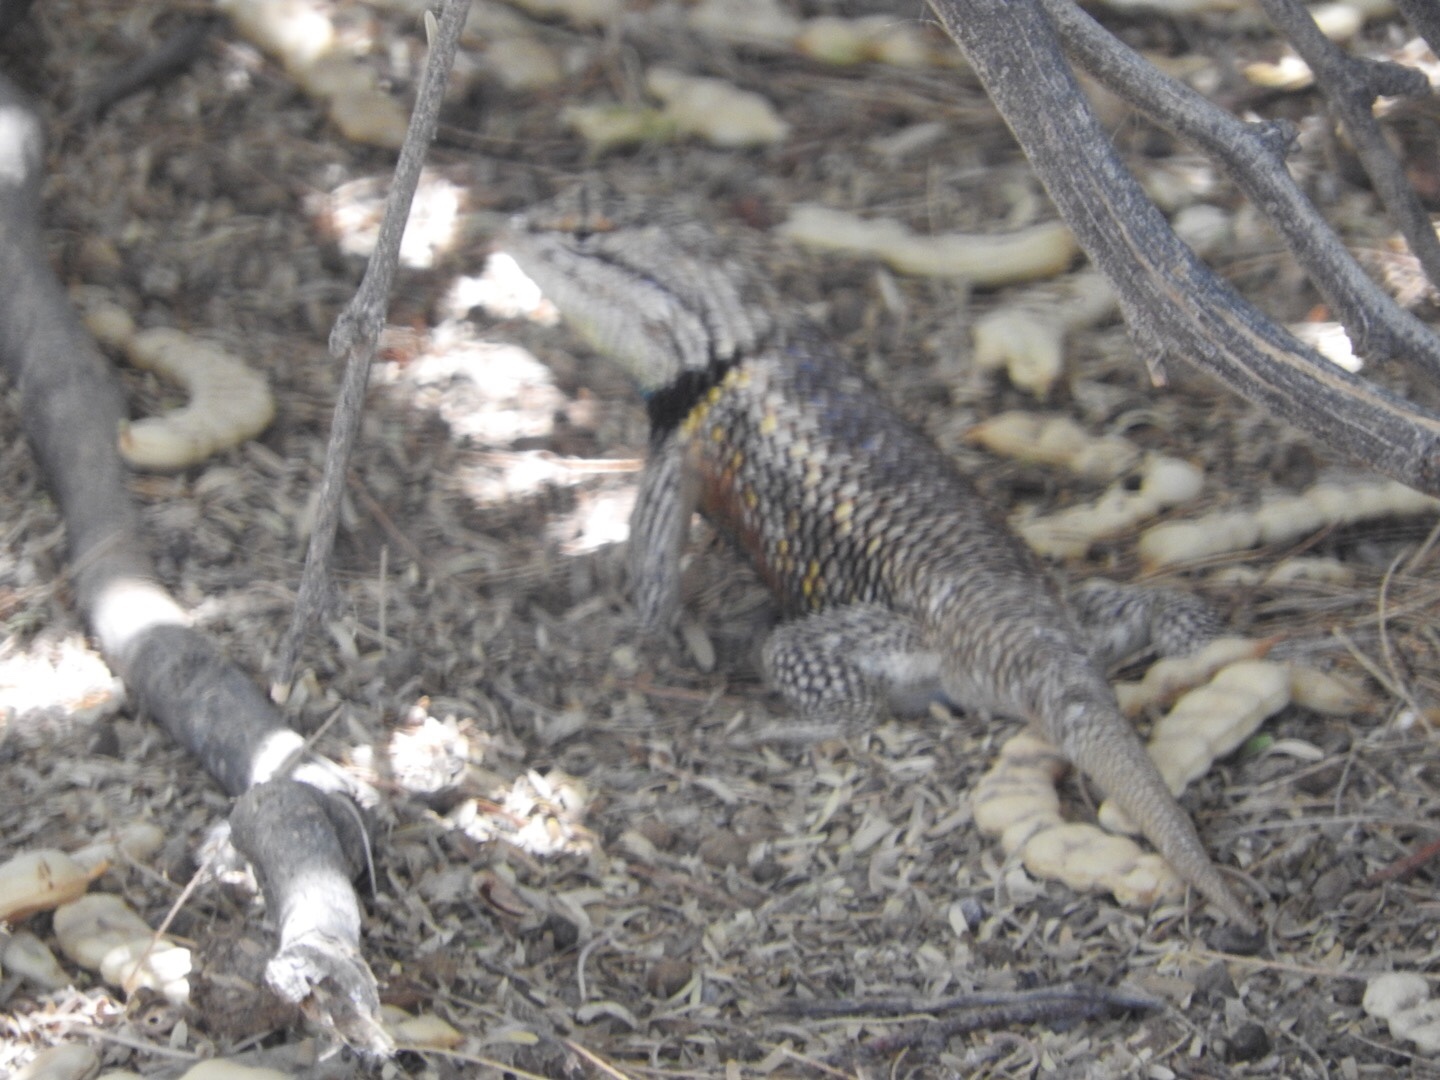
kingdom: Animalia
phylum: Chordata
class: Squamata
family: Phrynosomatidae
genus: Sceloporus
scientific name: Sceloporus magister
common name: Desert spiny lizard
